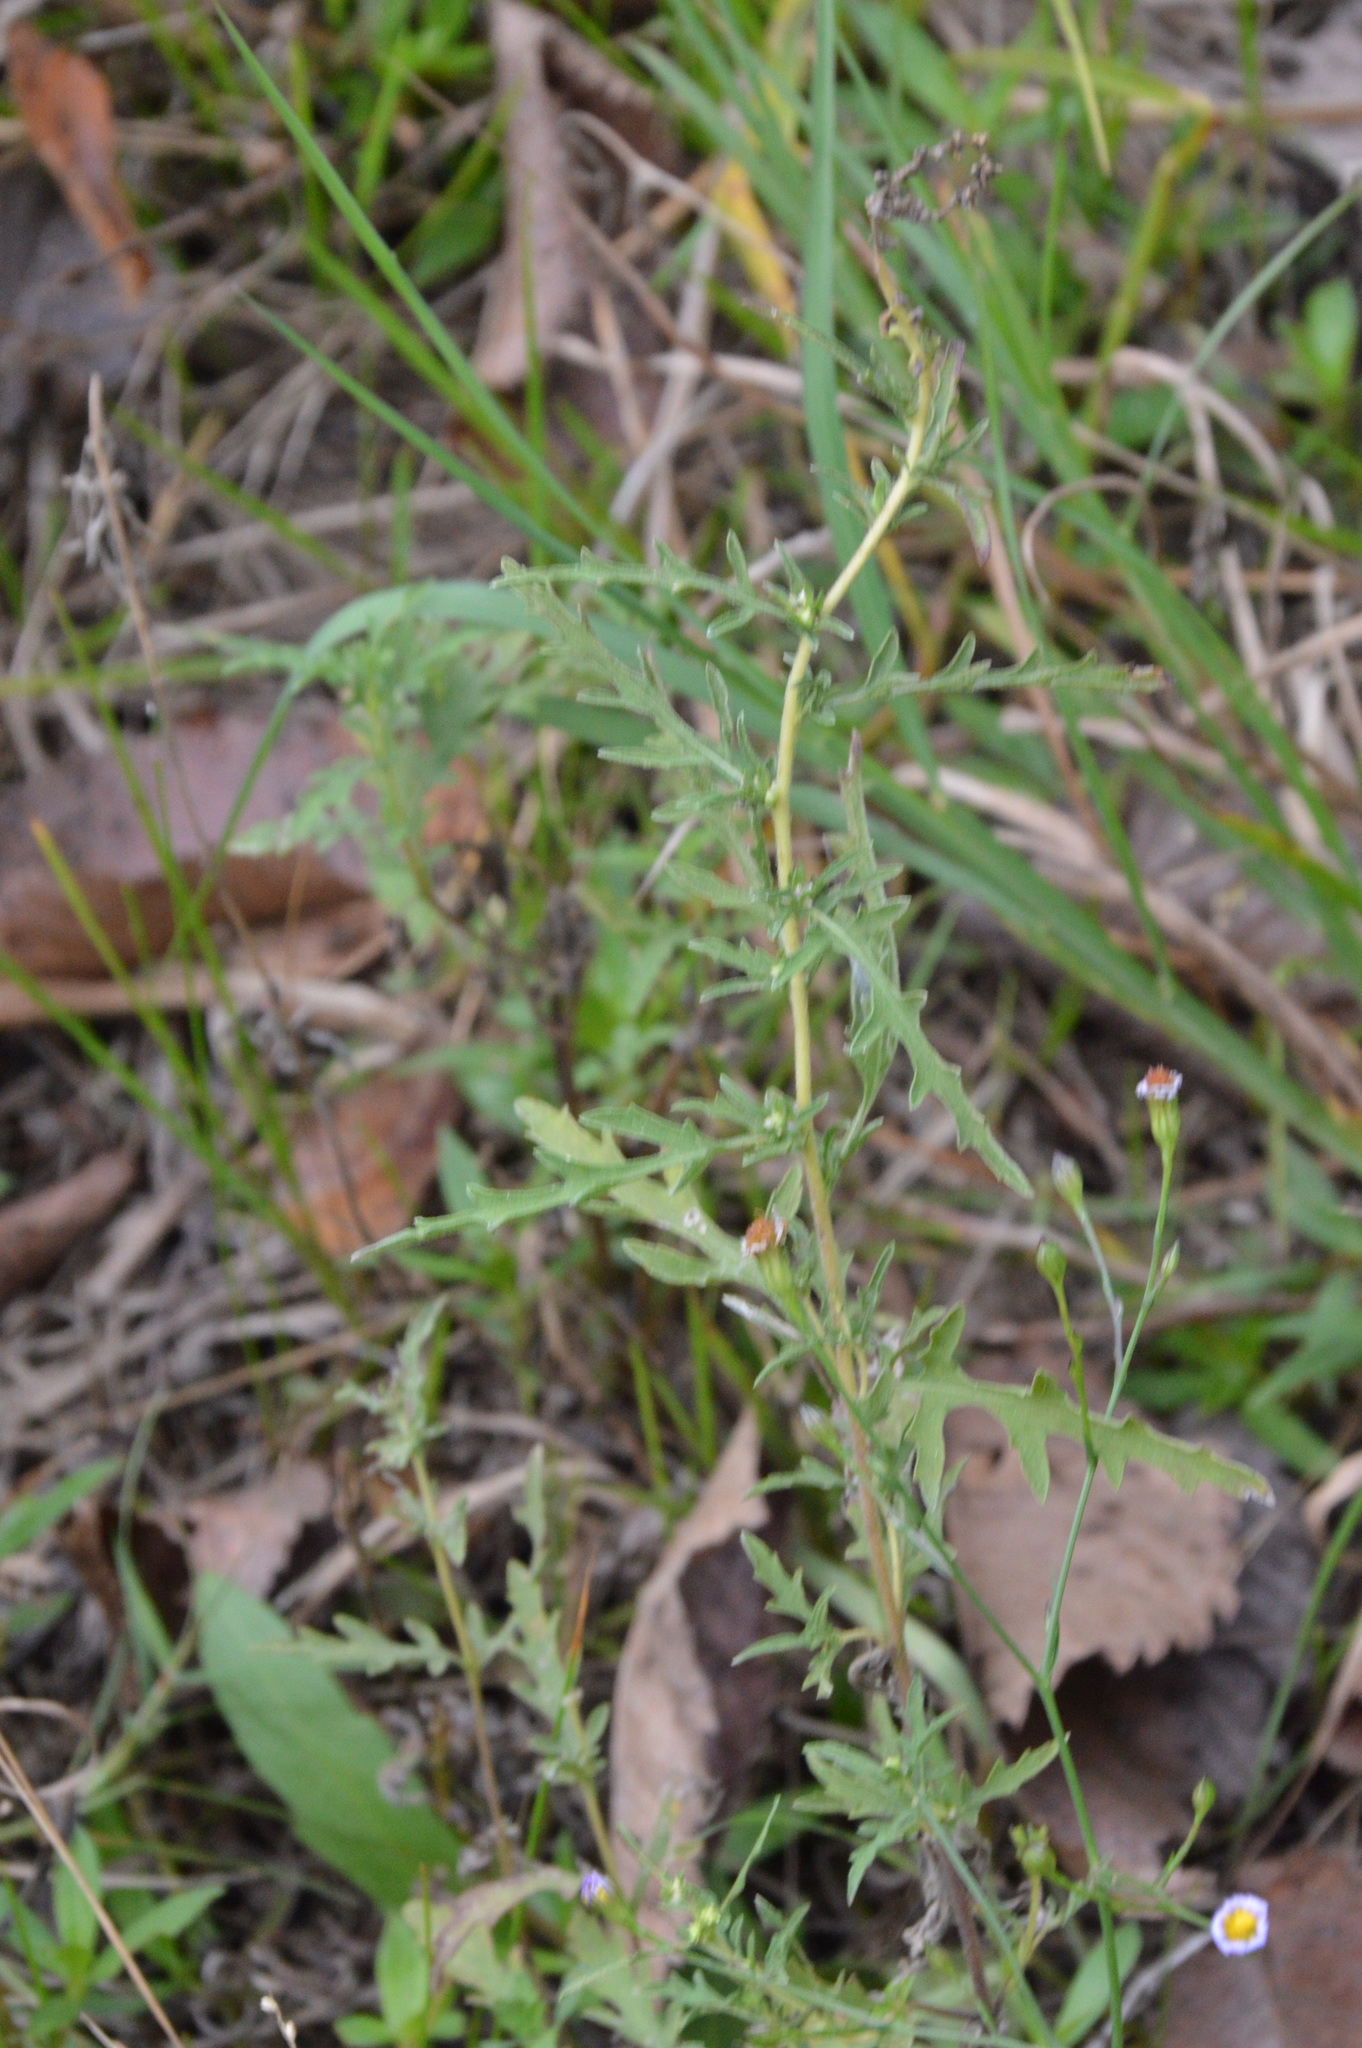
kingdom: Plantae
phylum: Tracheophyta
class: Magnoliopsida
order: Asterales
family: Asteraceae
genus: Ambrosia
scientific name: Ambrosia psilostachya
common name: Perennial ragweed
